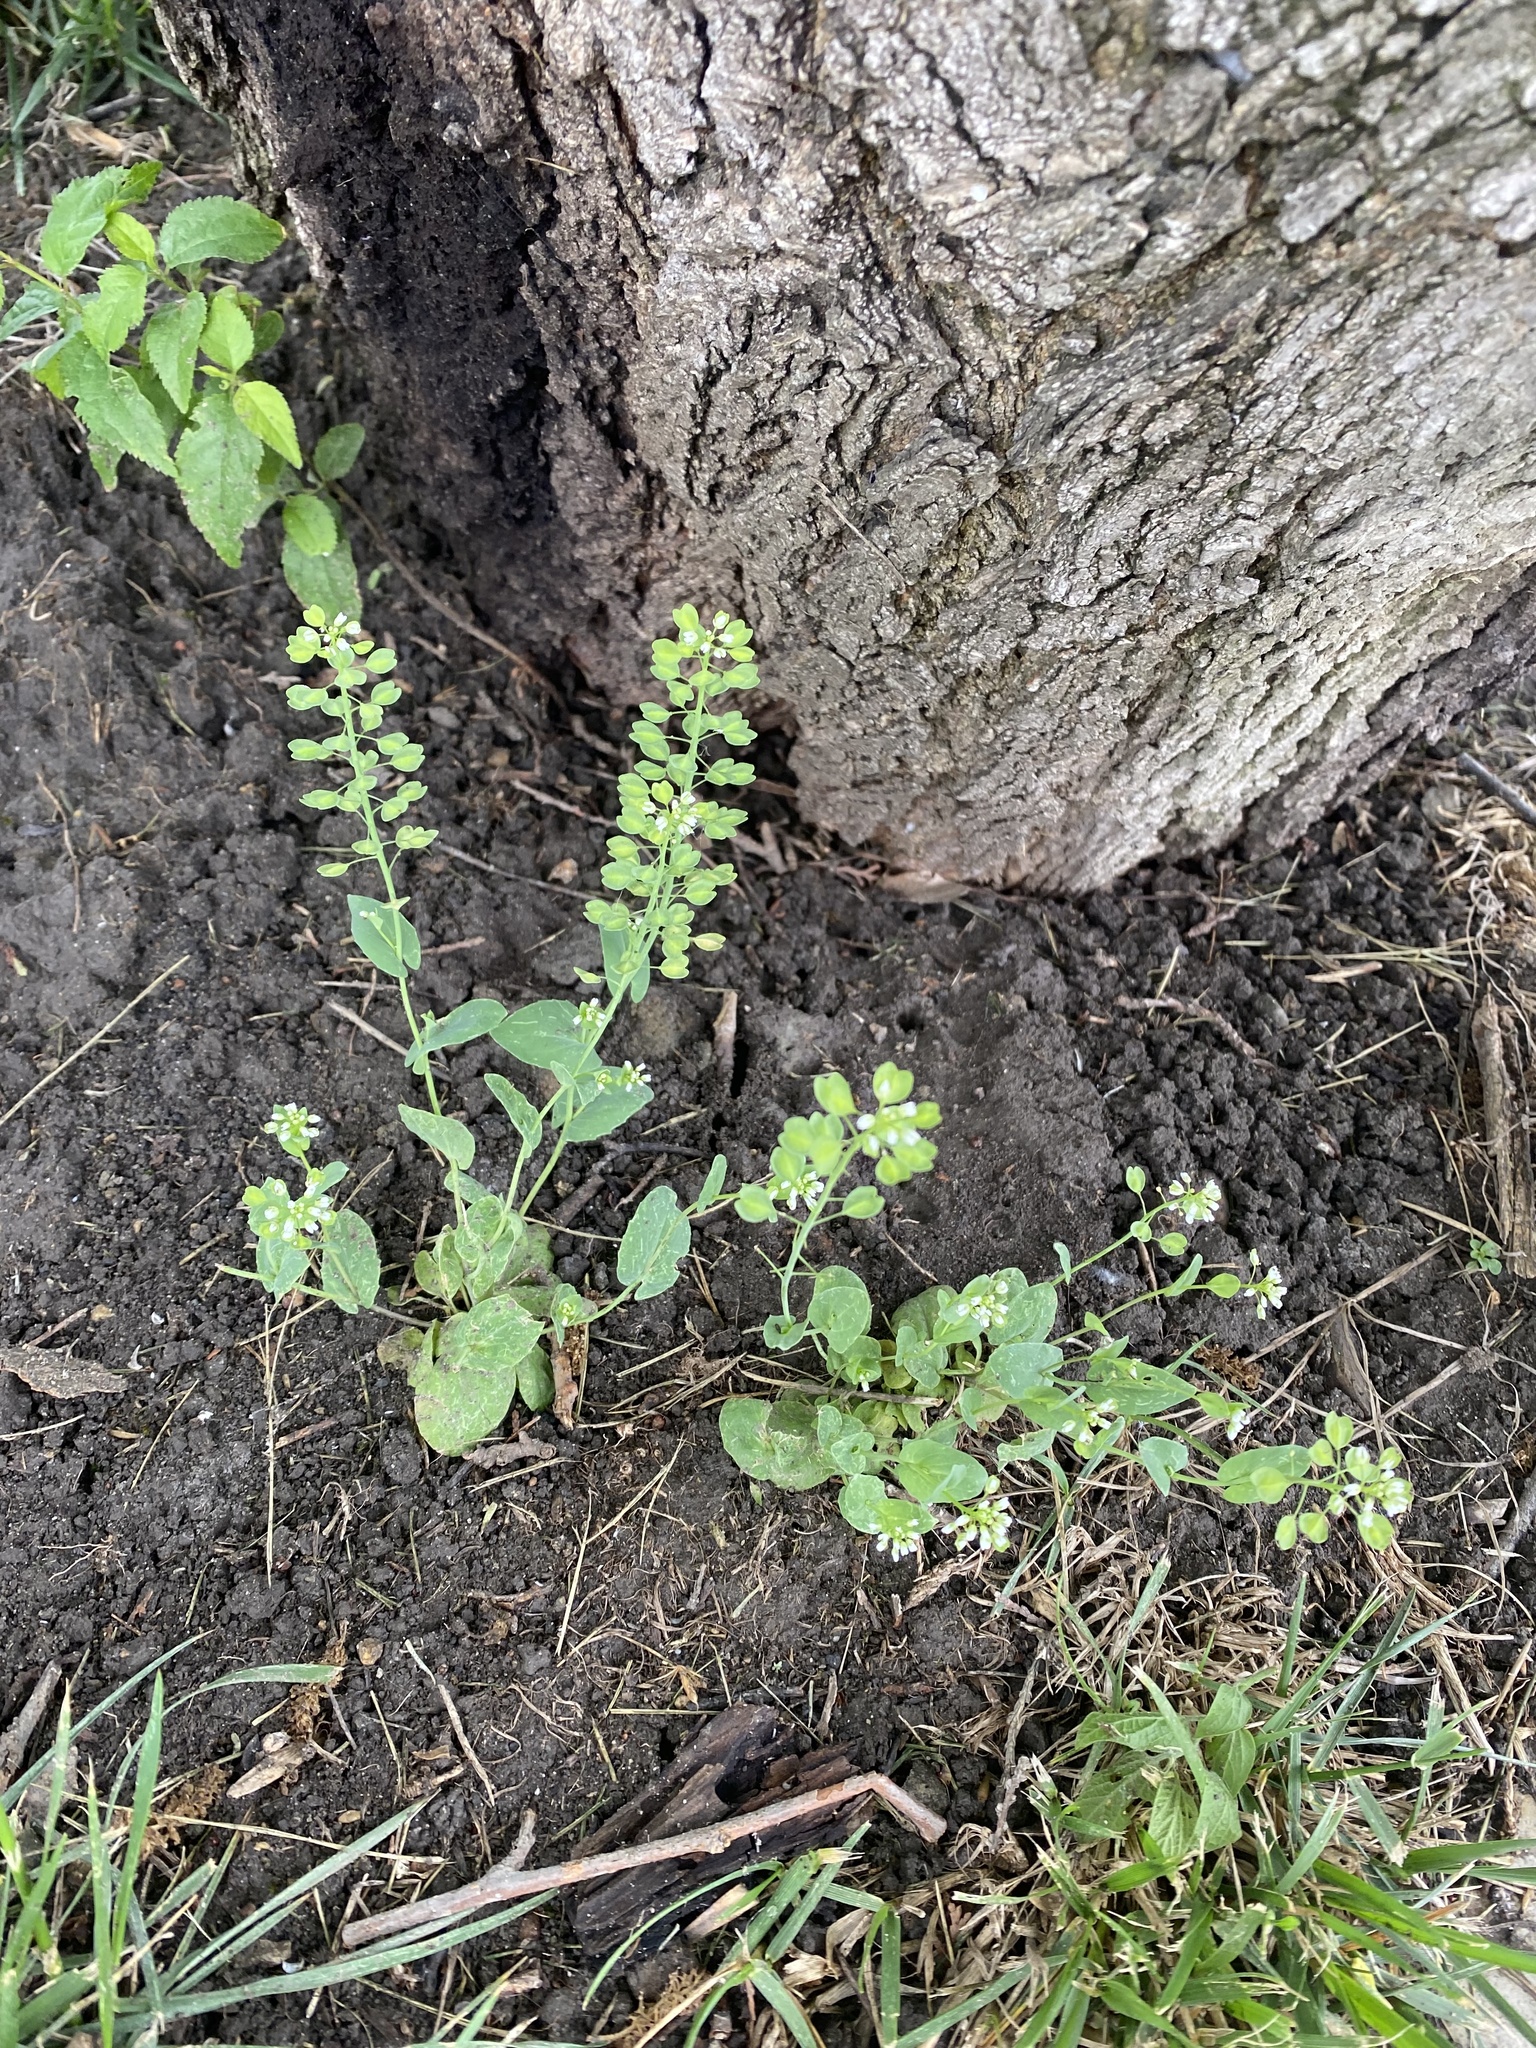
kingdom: Plantae
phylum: Tracheophyta
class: Magnoliopsida
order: Brassicales
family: Brassicaceae
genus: Noccaea
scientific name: Noccaea perfoliata
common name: Perfoliate pennycress
